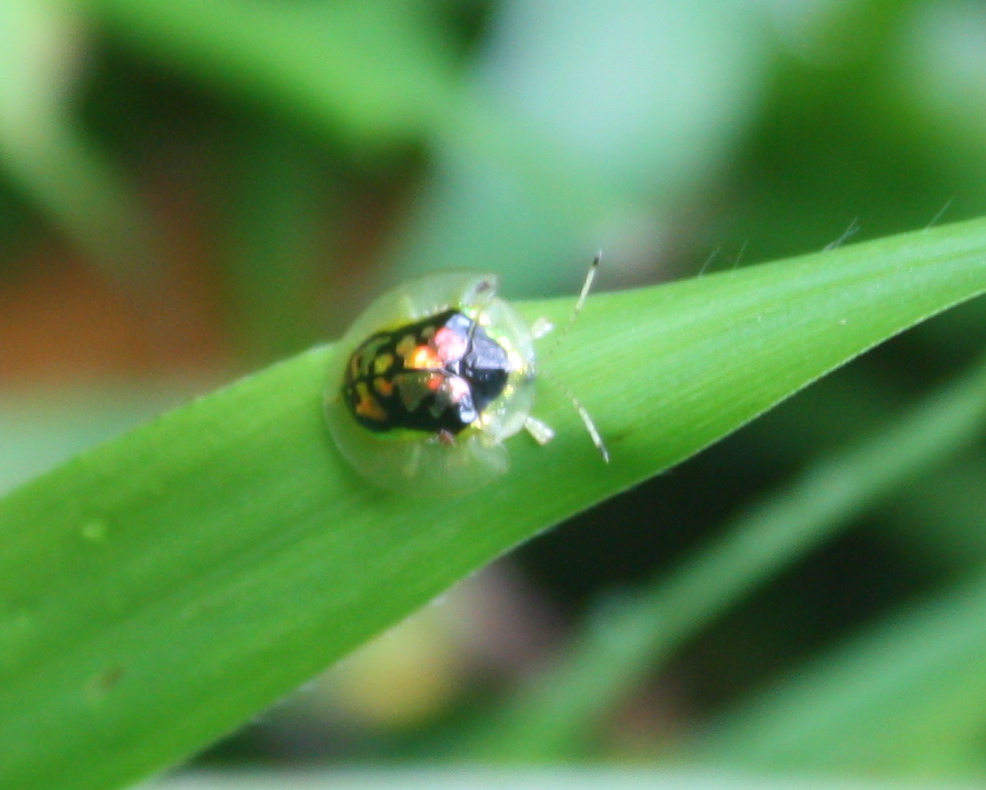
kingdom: Animalia
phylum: Arthropoda
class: Insecta
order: Coleoptera
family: Chrysomelidae
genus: Plagiometriona
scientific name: Plagiometriona boschmai
